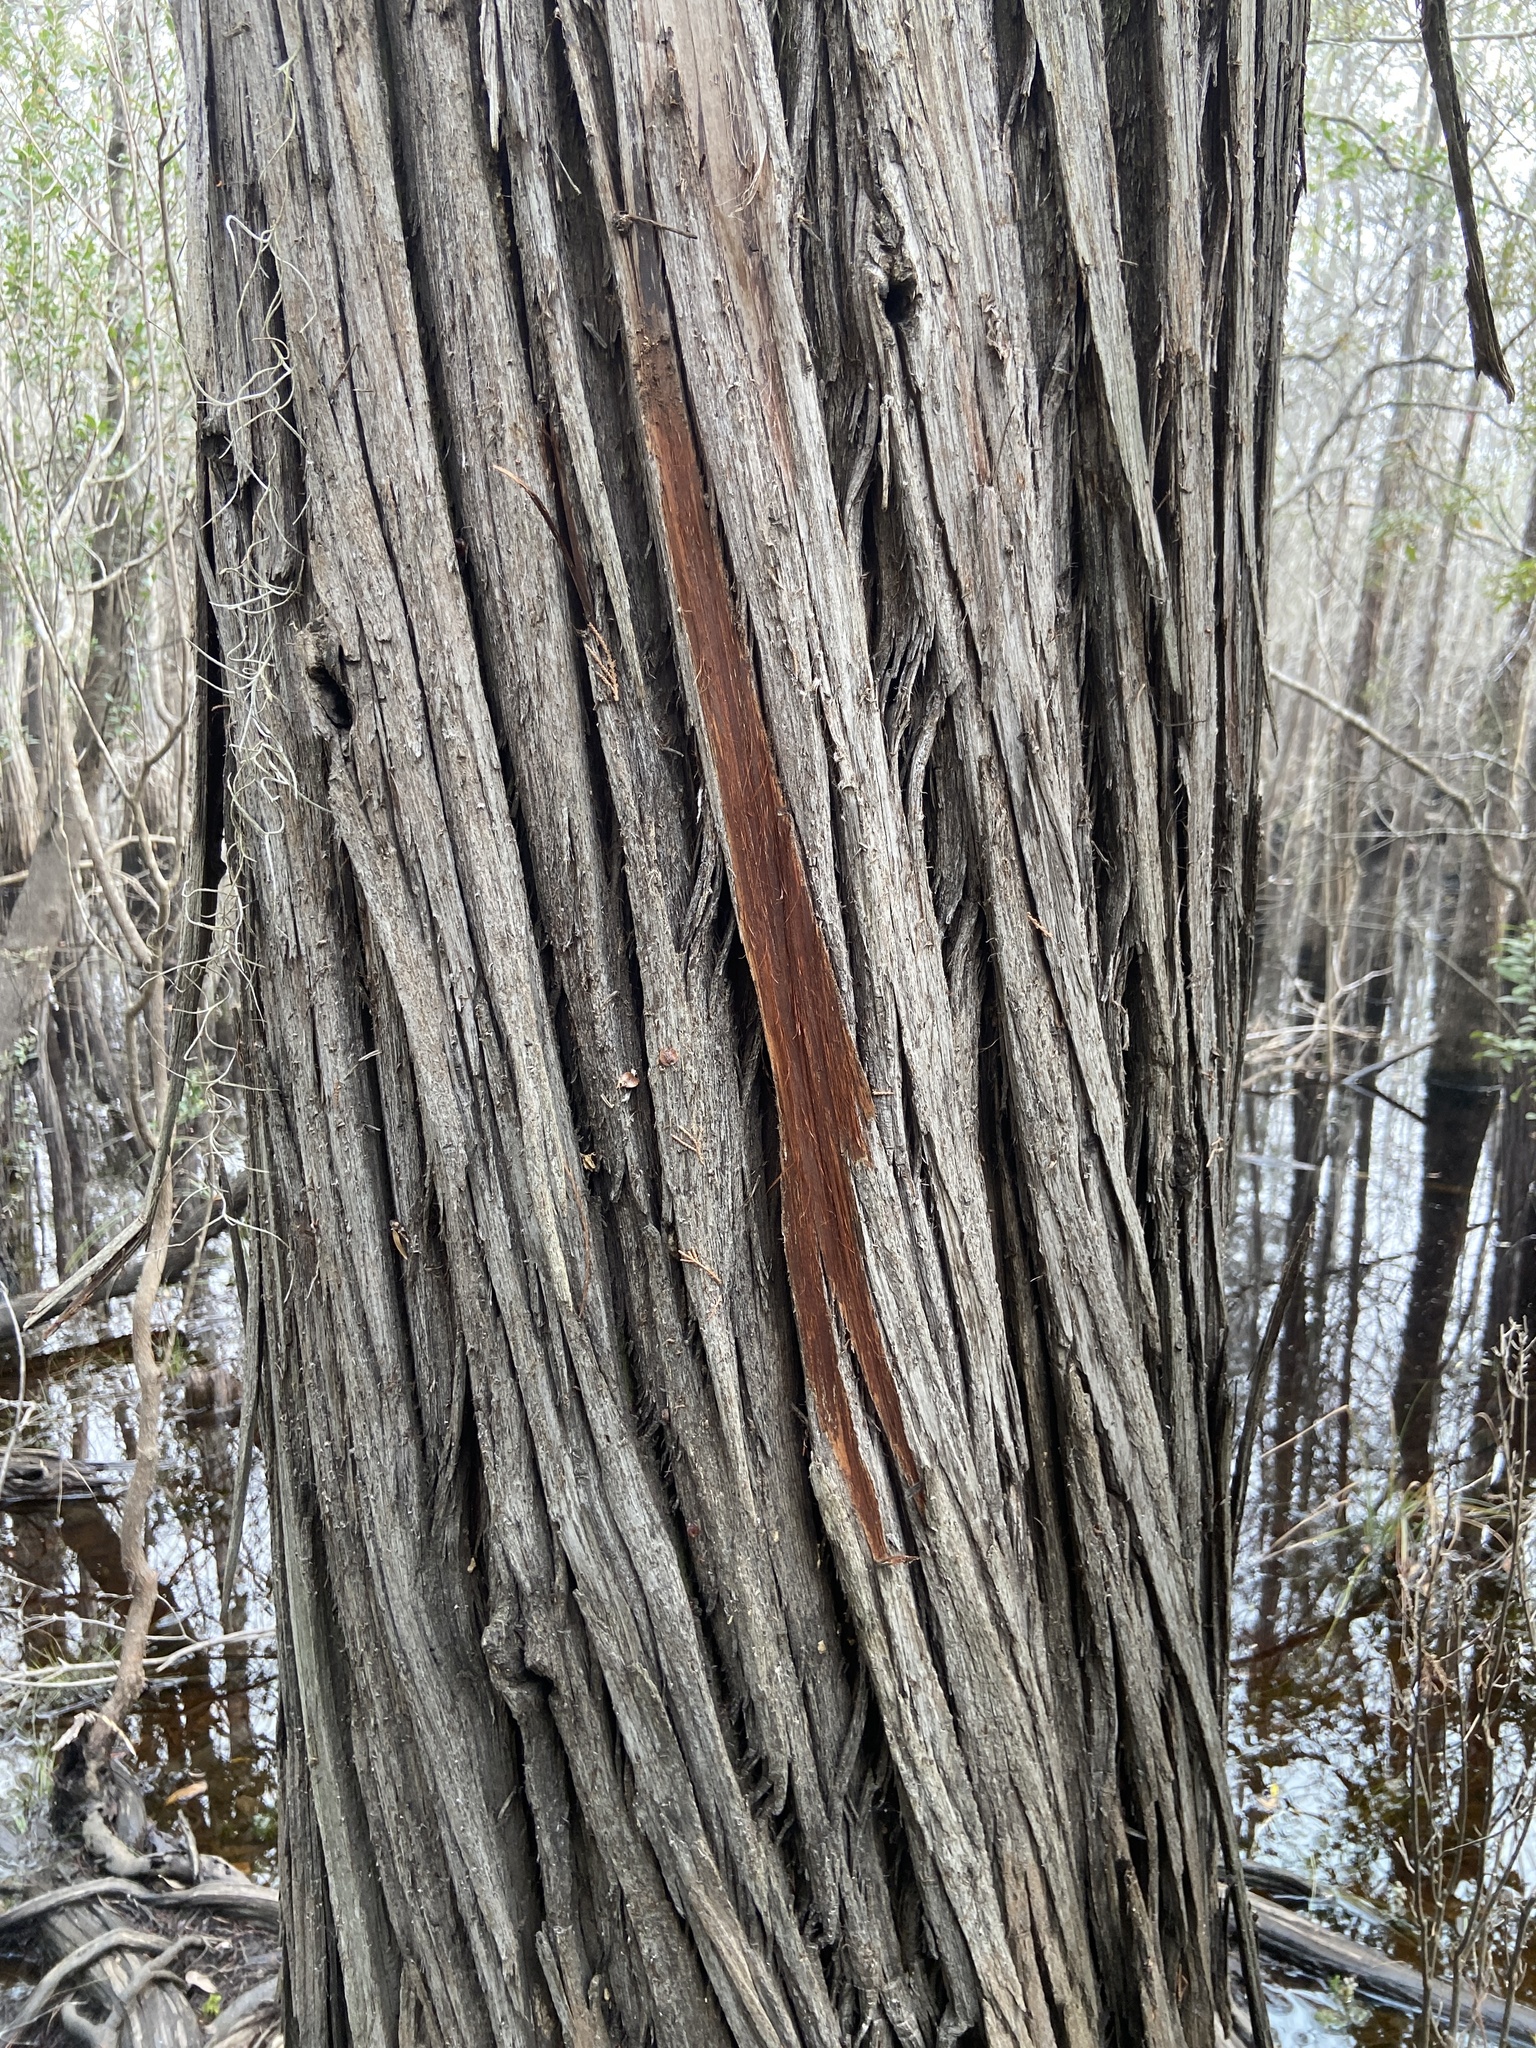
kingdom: Plantae
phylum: Tracheophyta
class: Pinopsida
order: Pinales
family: Cupressaceae
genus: Taxodium
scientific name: Taxodium distichum
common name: Bald cypress
